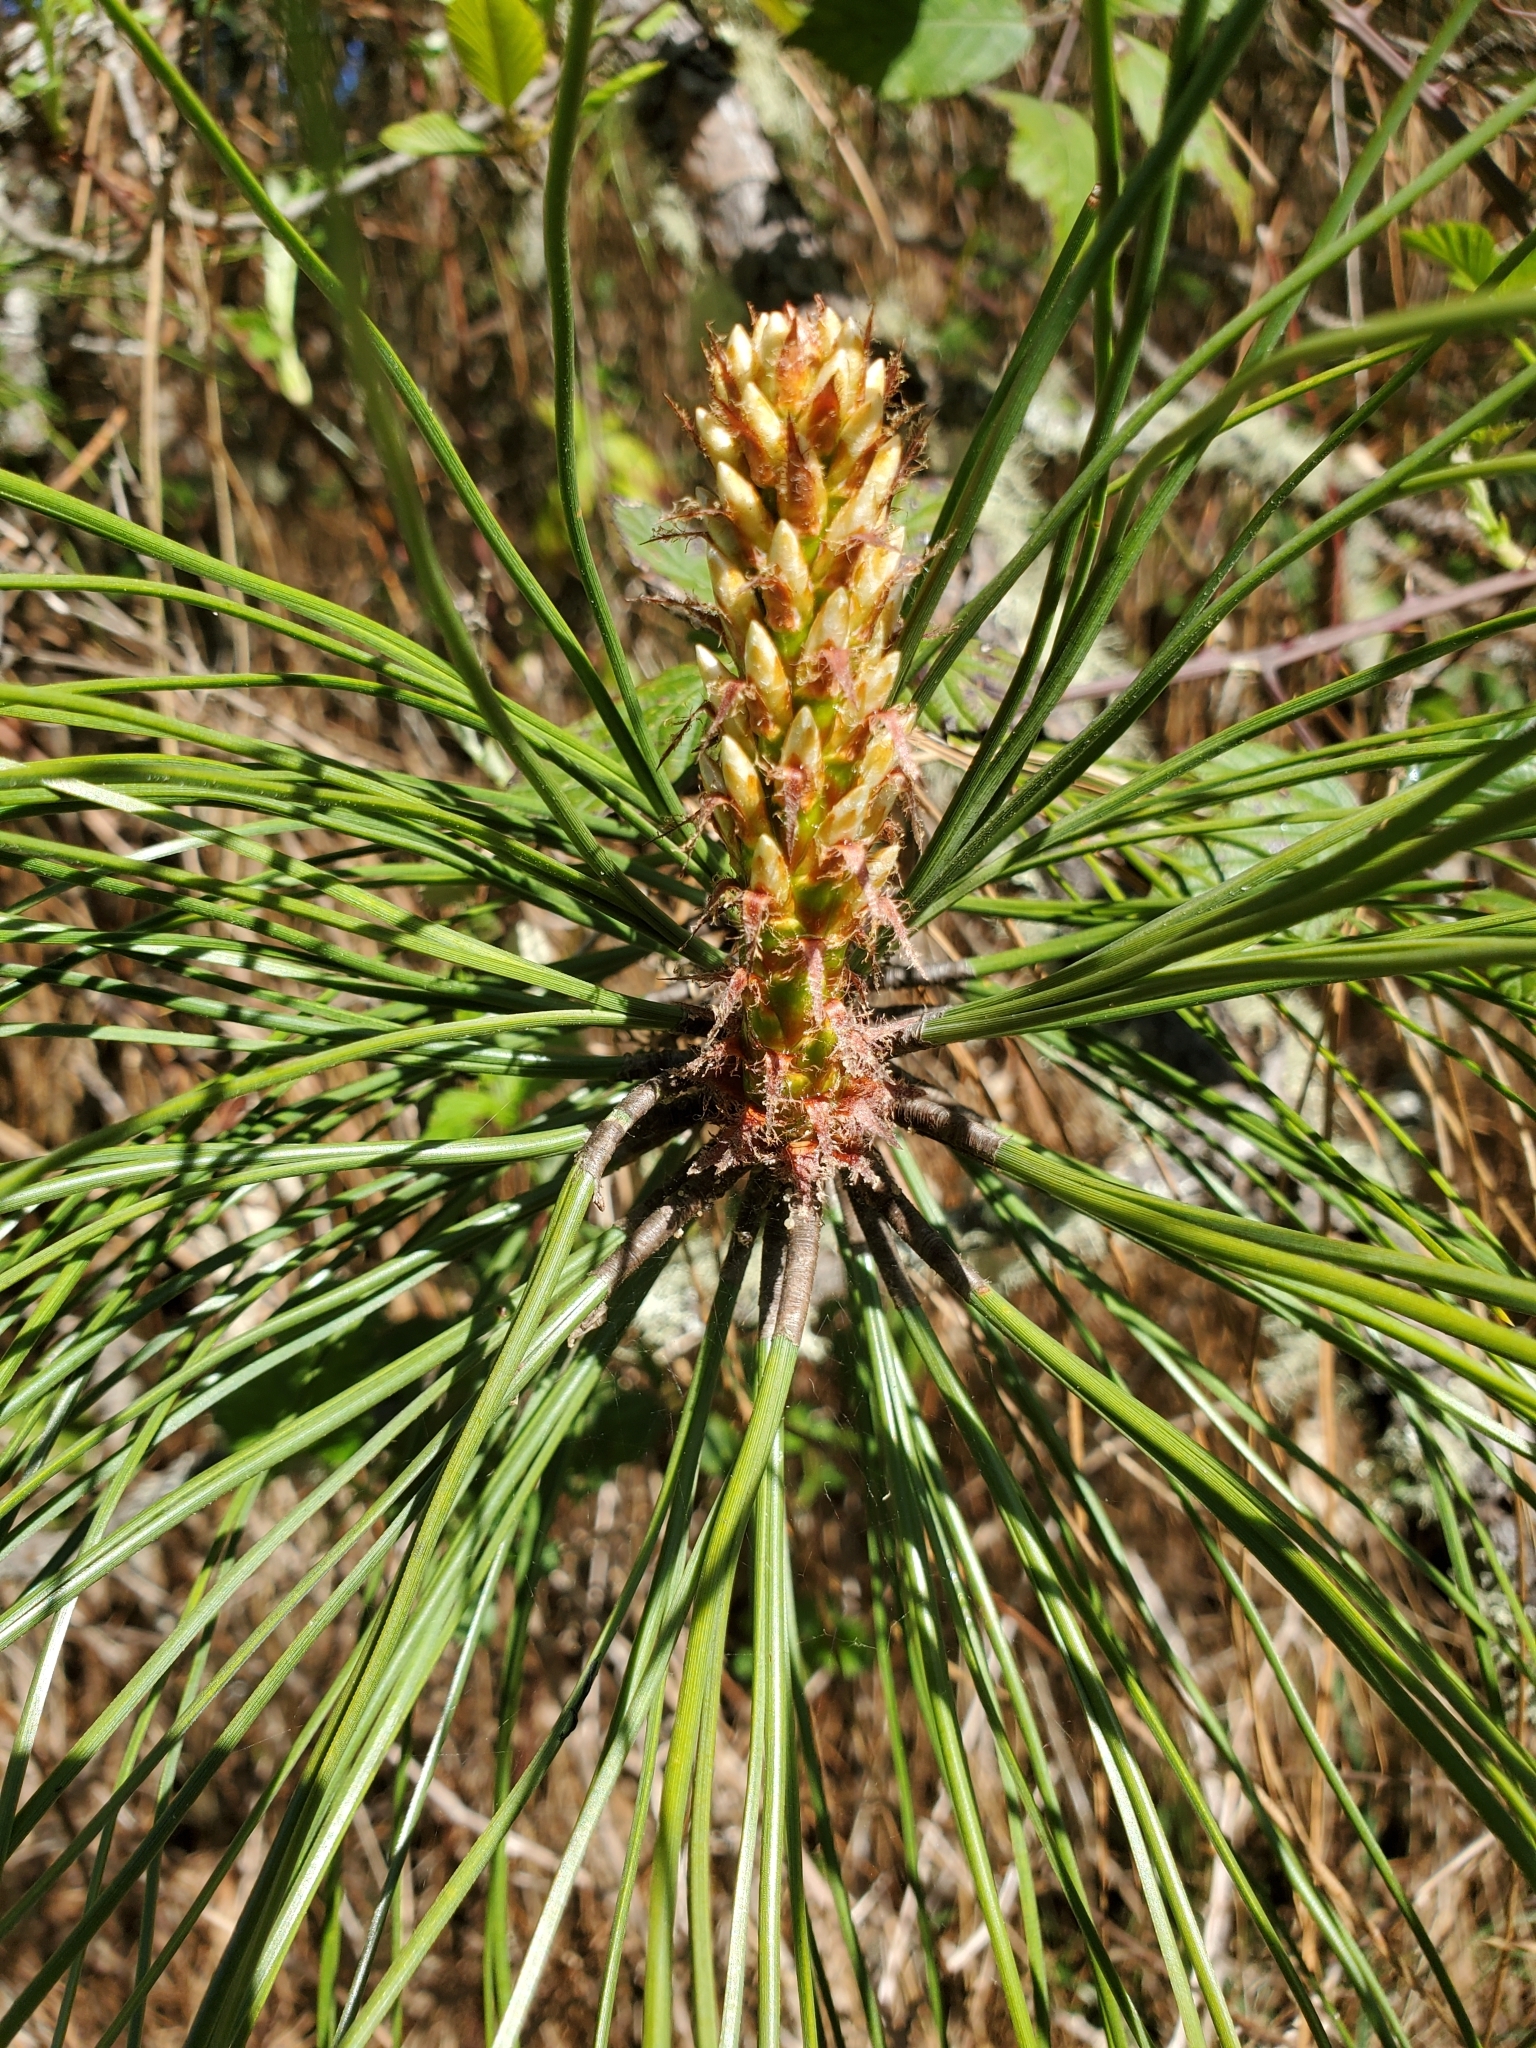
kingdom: Plantae
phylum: Tracheophyta
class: Pinopsida
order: Pinales
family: Pinaceae
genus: Pinus
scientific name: Pinus ponderosa
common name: Western yellow-pine
